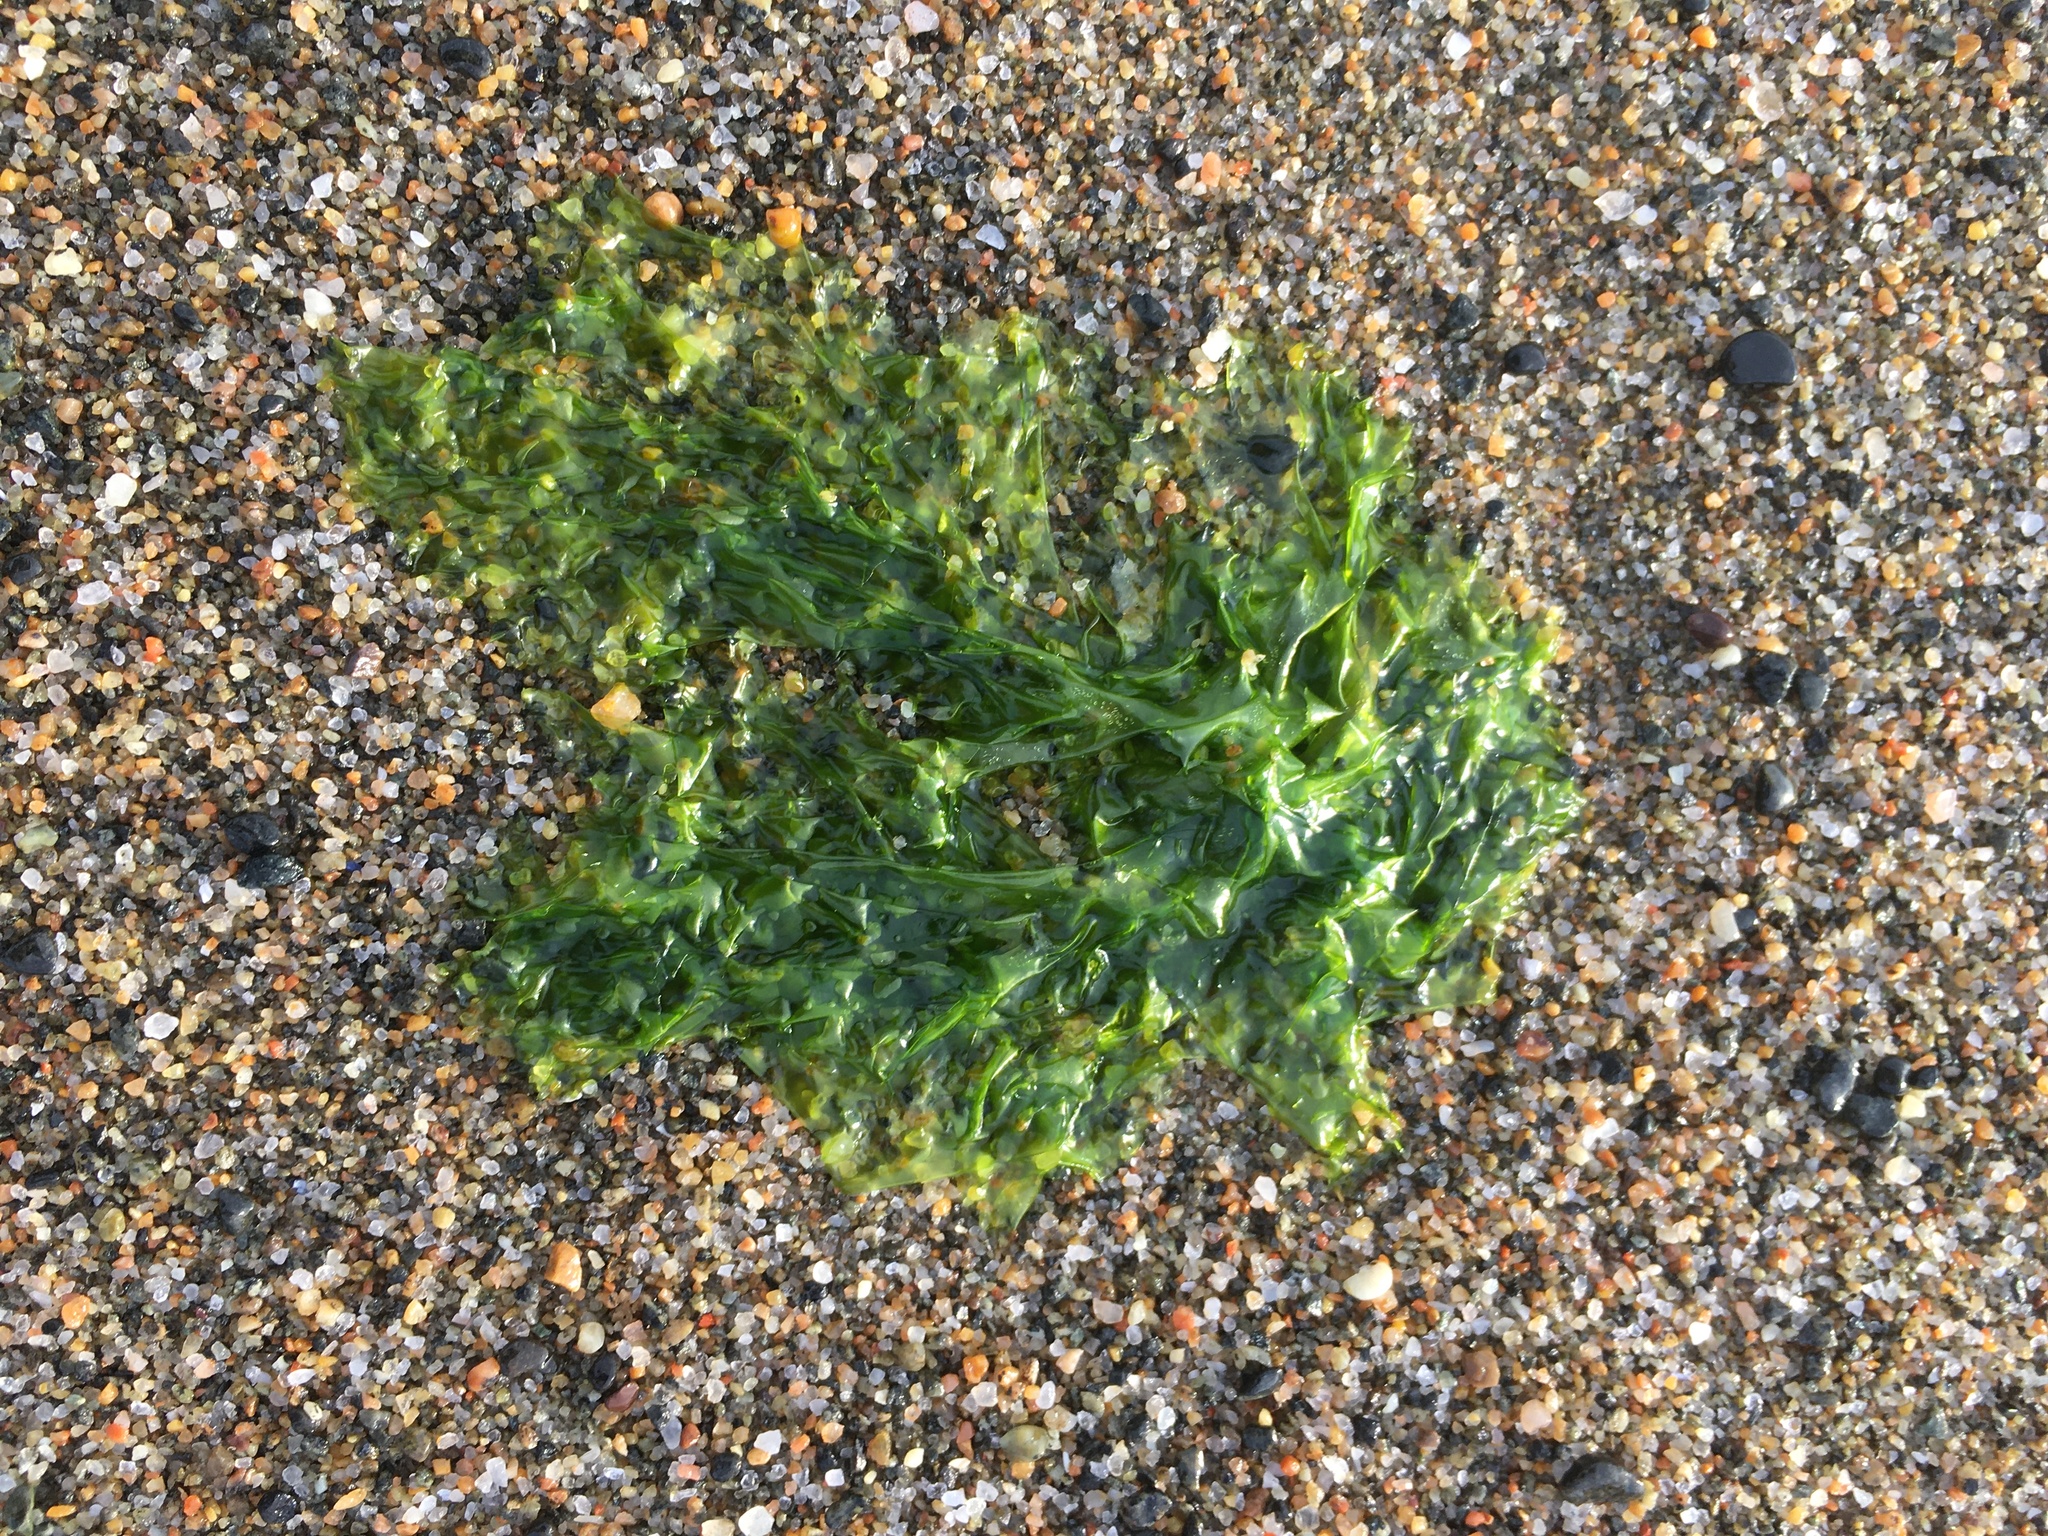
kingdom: Plantae
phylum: Chlorophyta
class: Ulvophyceae
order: Ulvales
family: Ulvaceae
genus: Ulva
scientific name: Ulva lactuca
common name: Sea lettuce
